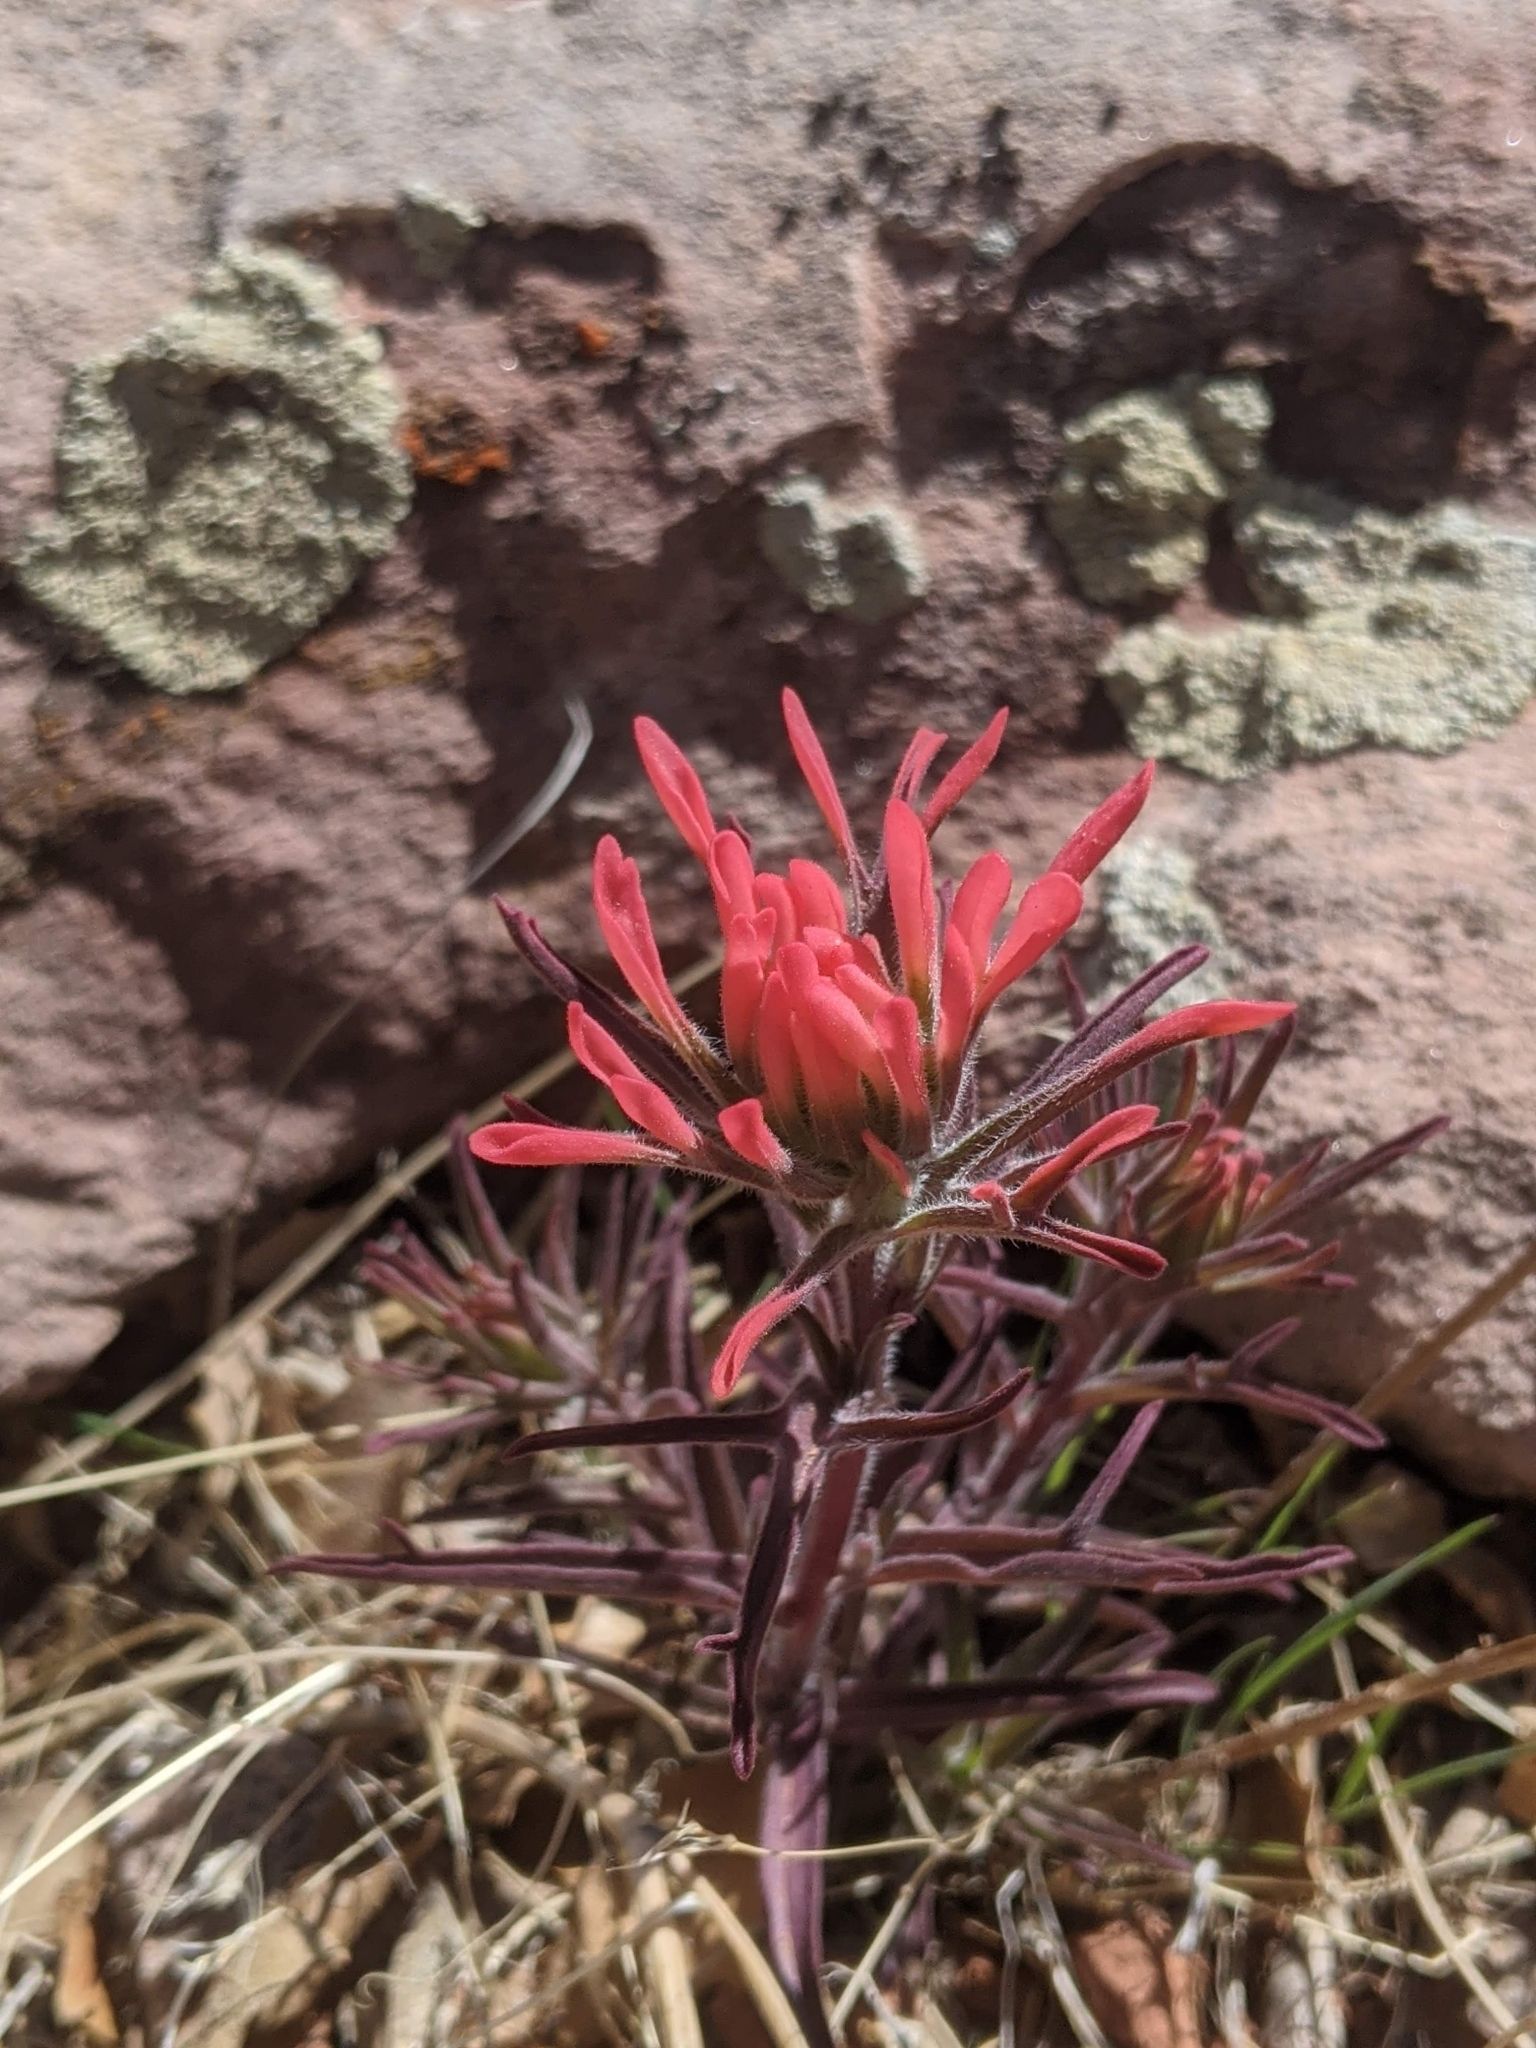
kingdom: Plantae
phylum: Tracheophyta
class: Magnoliopsida
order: Lamiales
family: Orobanchaceae
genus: Castilleja
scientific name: Castilleja chromosa
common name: Desert paintbrush
